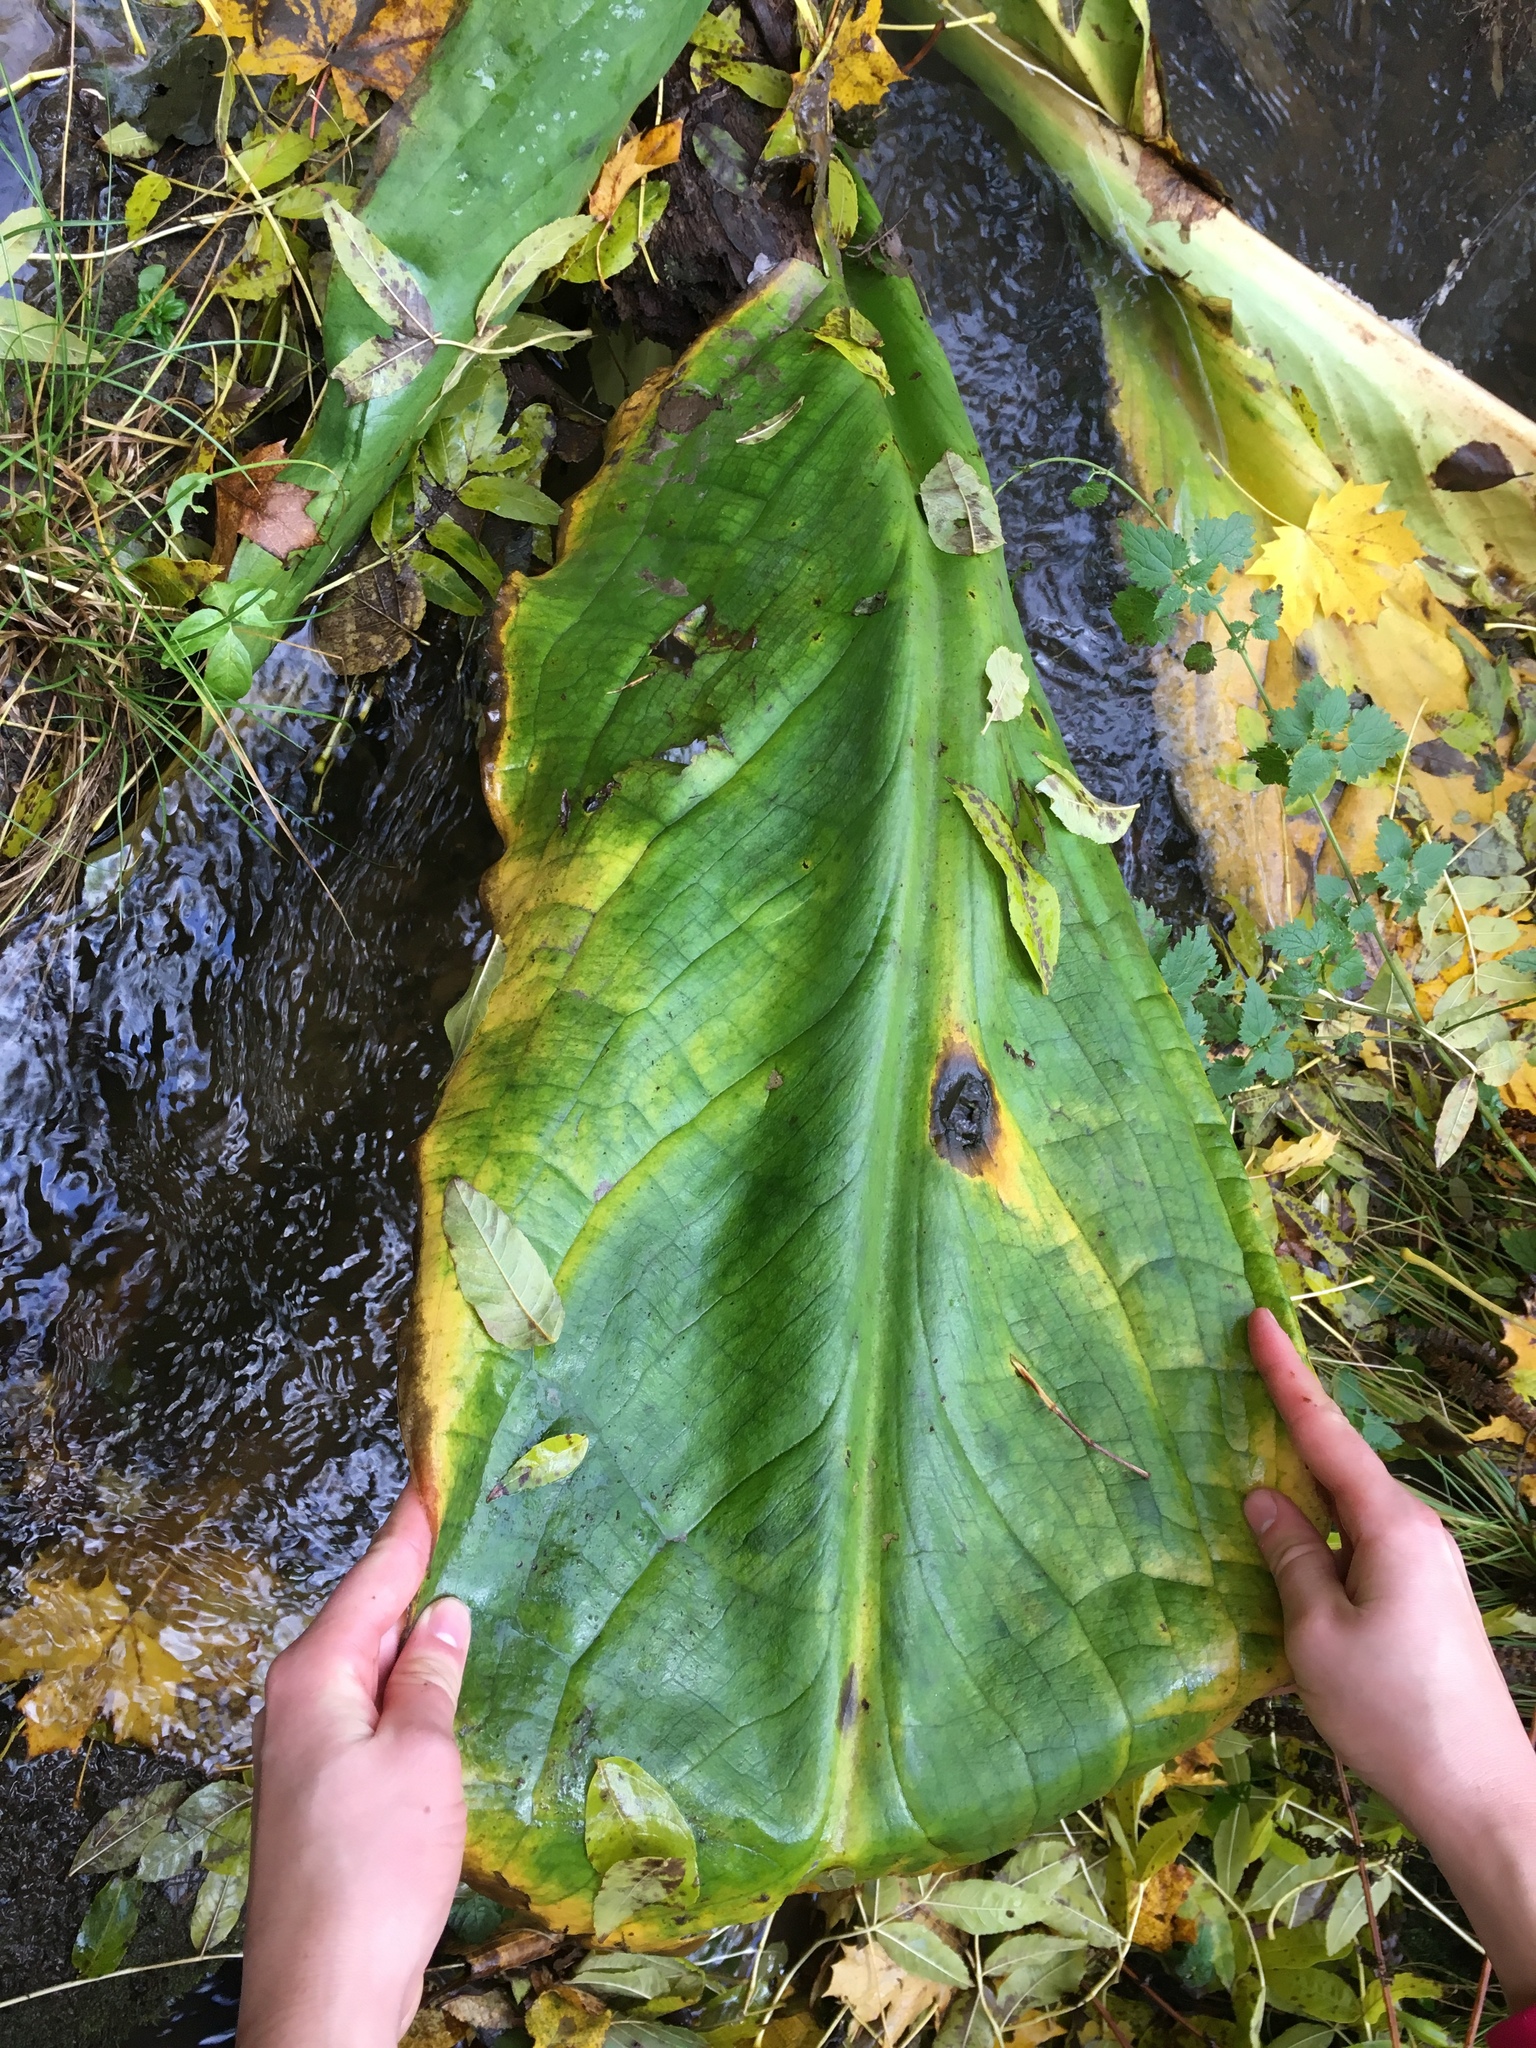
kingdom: Plantae
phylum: Tracheophyta
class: Liliopsida
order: Alismatales
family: Araceae
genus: Lysichiton
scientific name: Lysichiton americanus
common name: American skunk cabbage
